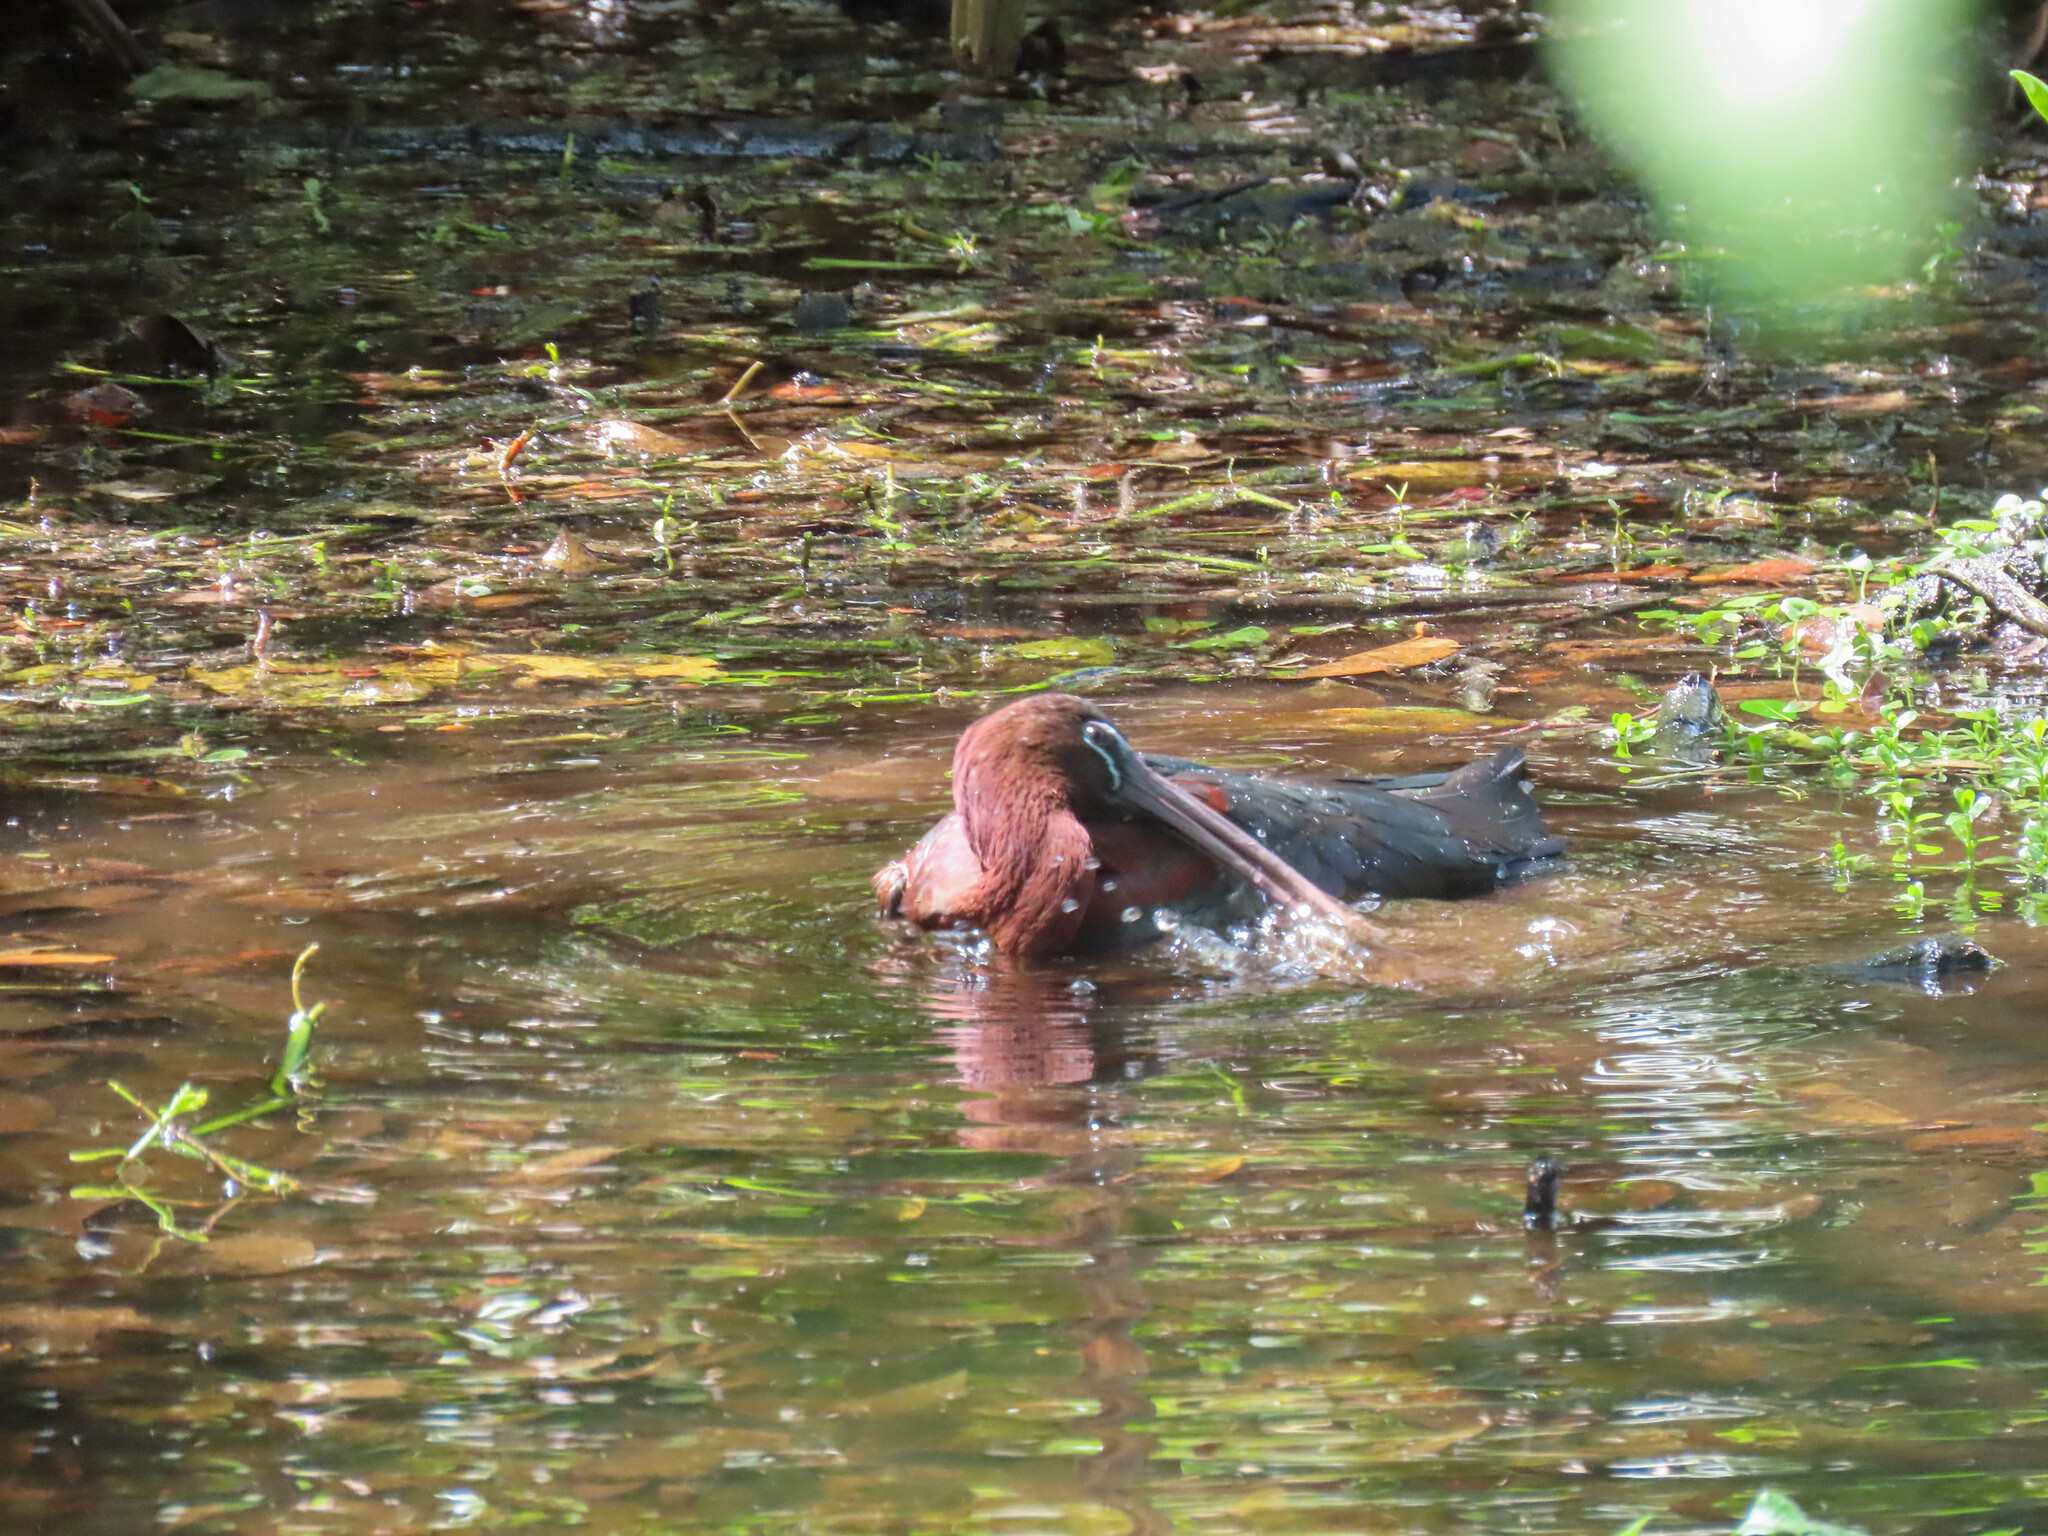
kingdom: Animalia
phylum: Chordata
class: Aves
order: Pelecaniformes
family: Threskiornithidae
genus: Plegadis
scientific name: Plegadis falcinellus
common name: Glossy ibis
